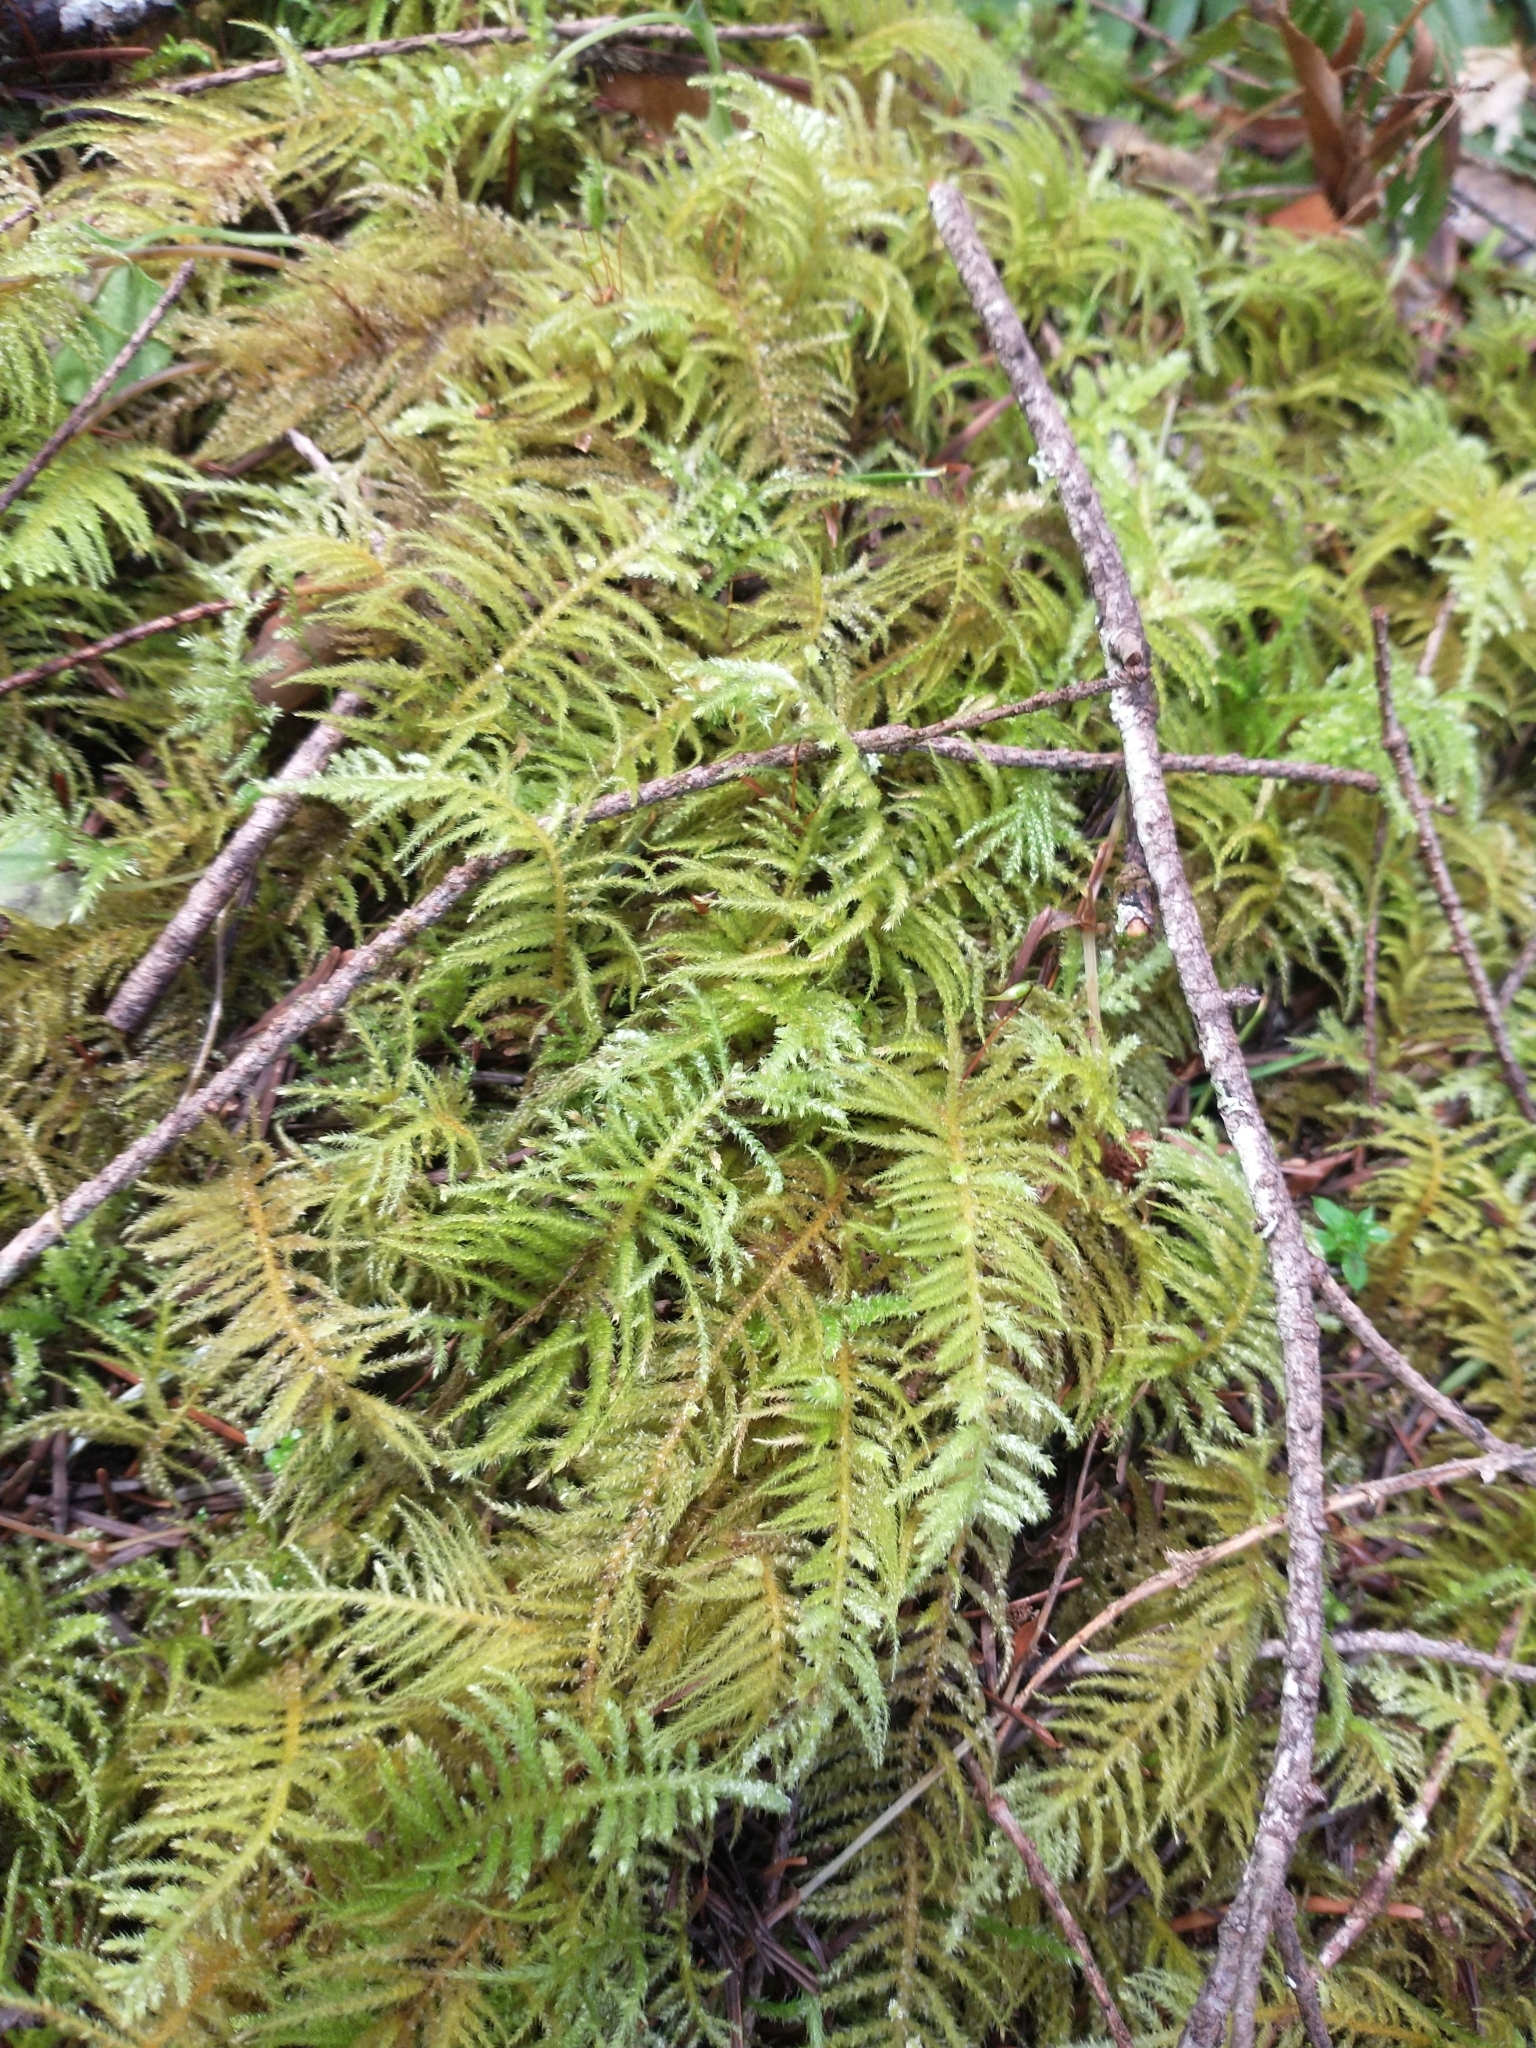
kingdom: Plantae
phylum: Bryophyta
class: Bryopsida
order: Hypnales
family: Brachytheciaceae
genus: Kindbergia
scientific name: Kindbergia oregana
